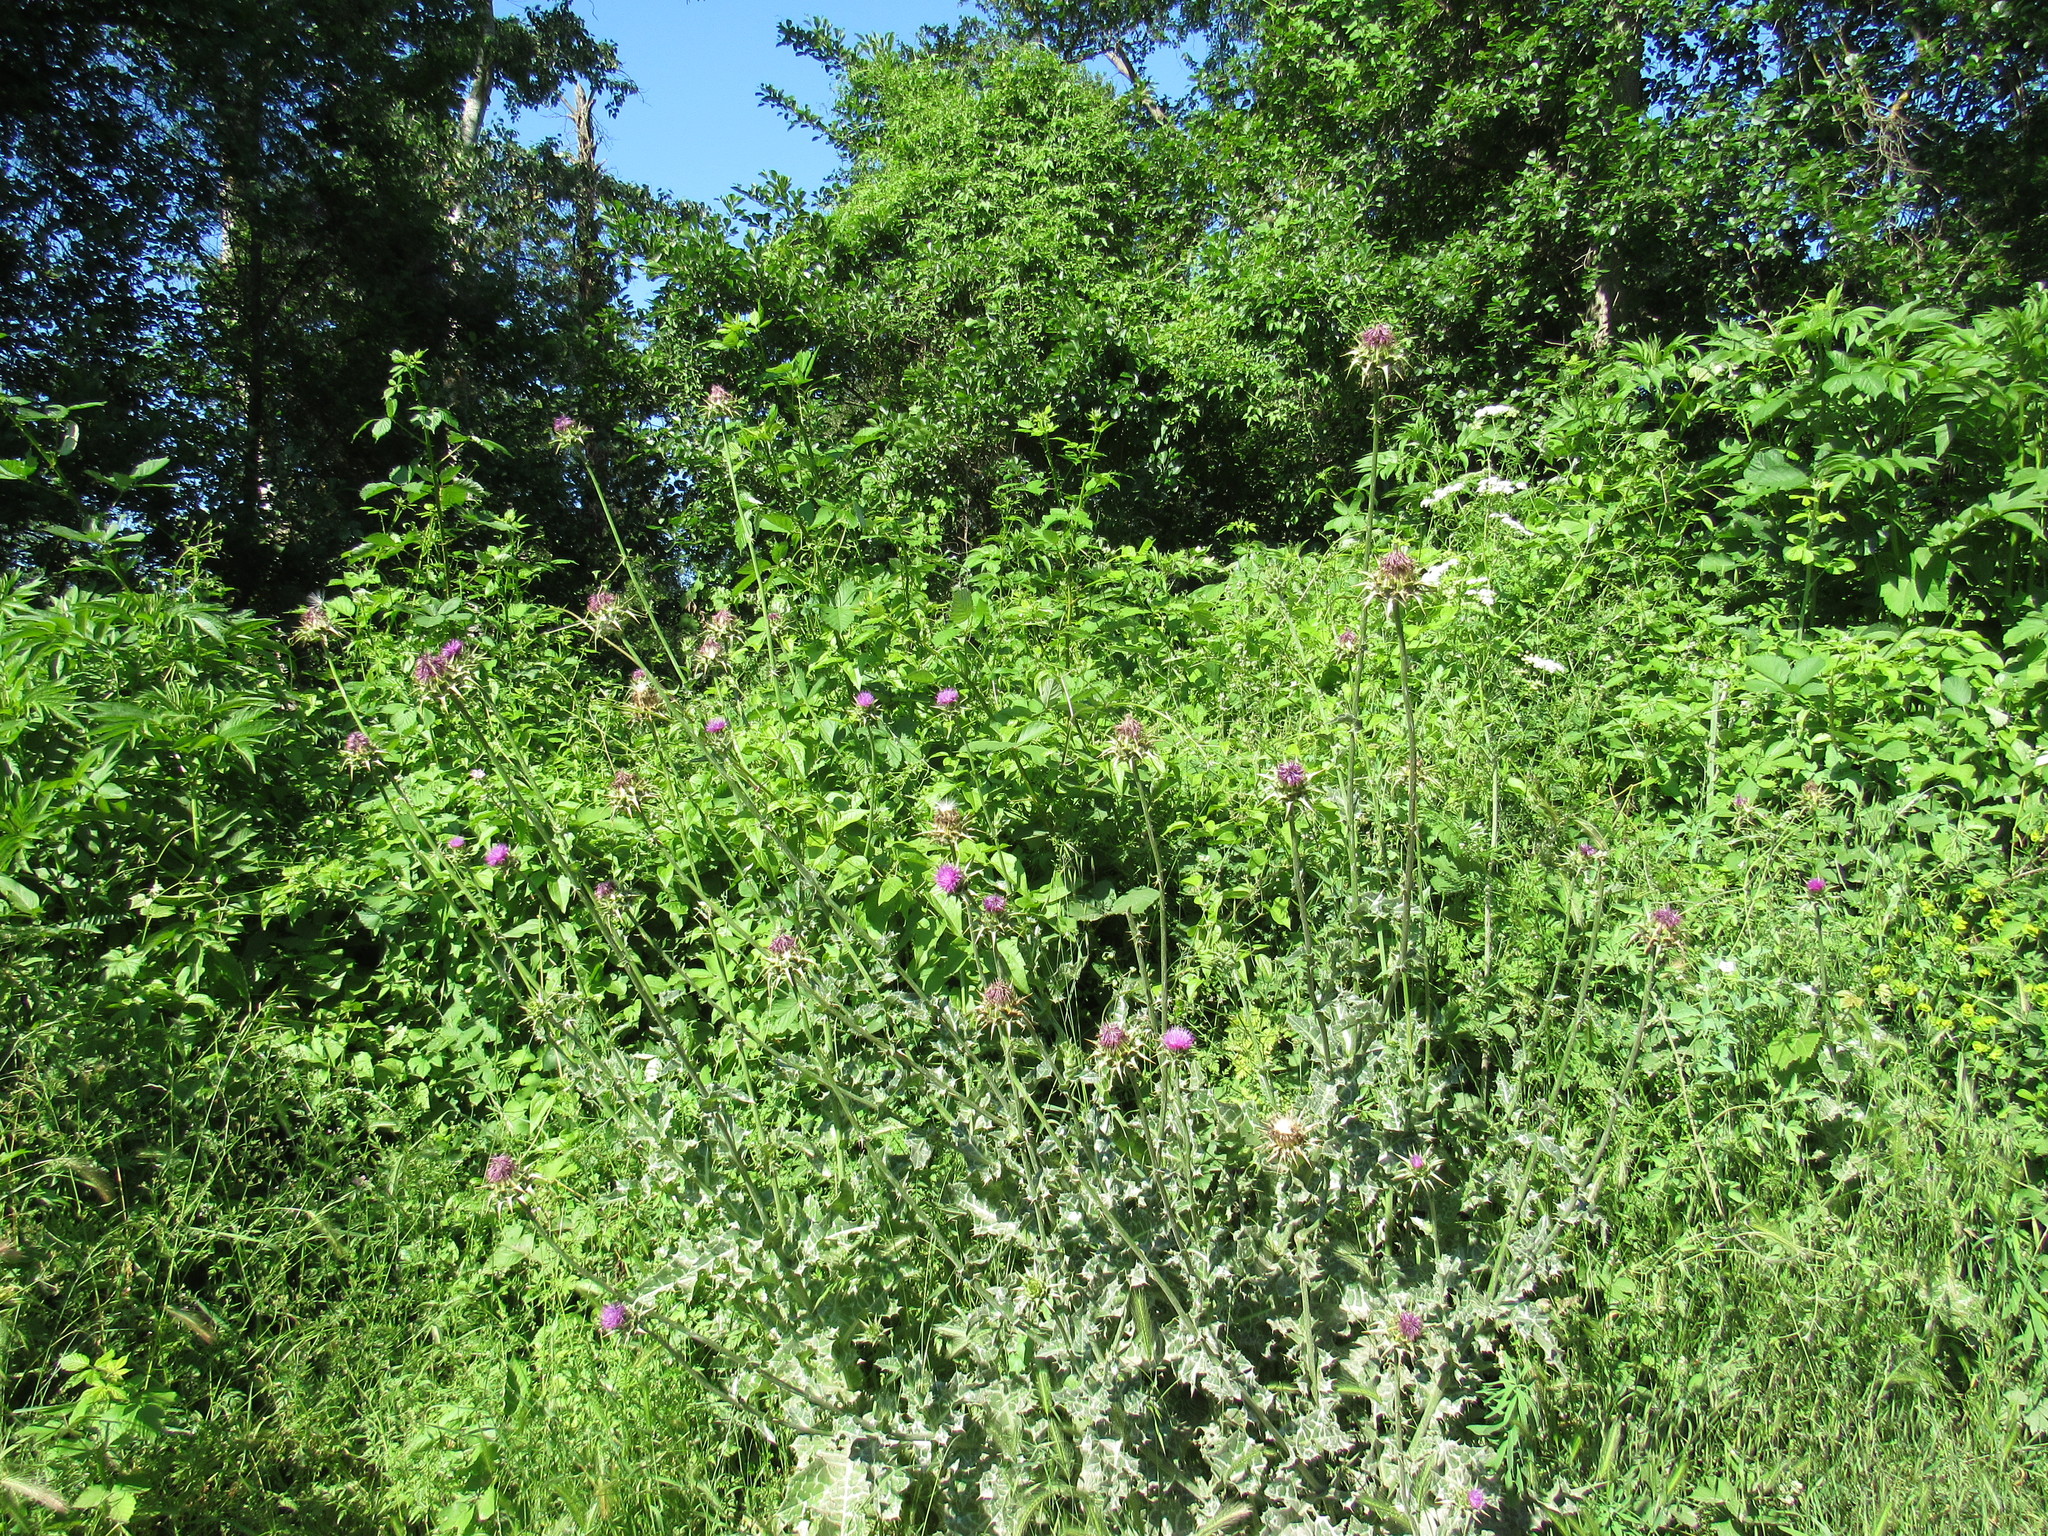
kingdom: Plantae
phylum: Tracheophyta
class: Magnoliopsida
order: Asterales
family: Asteraceae
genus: Silybum
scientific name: Silybum marianum
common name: Milk thistle
